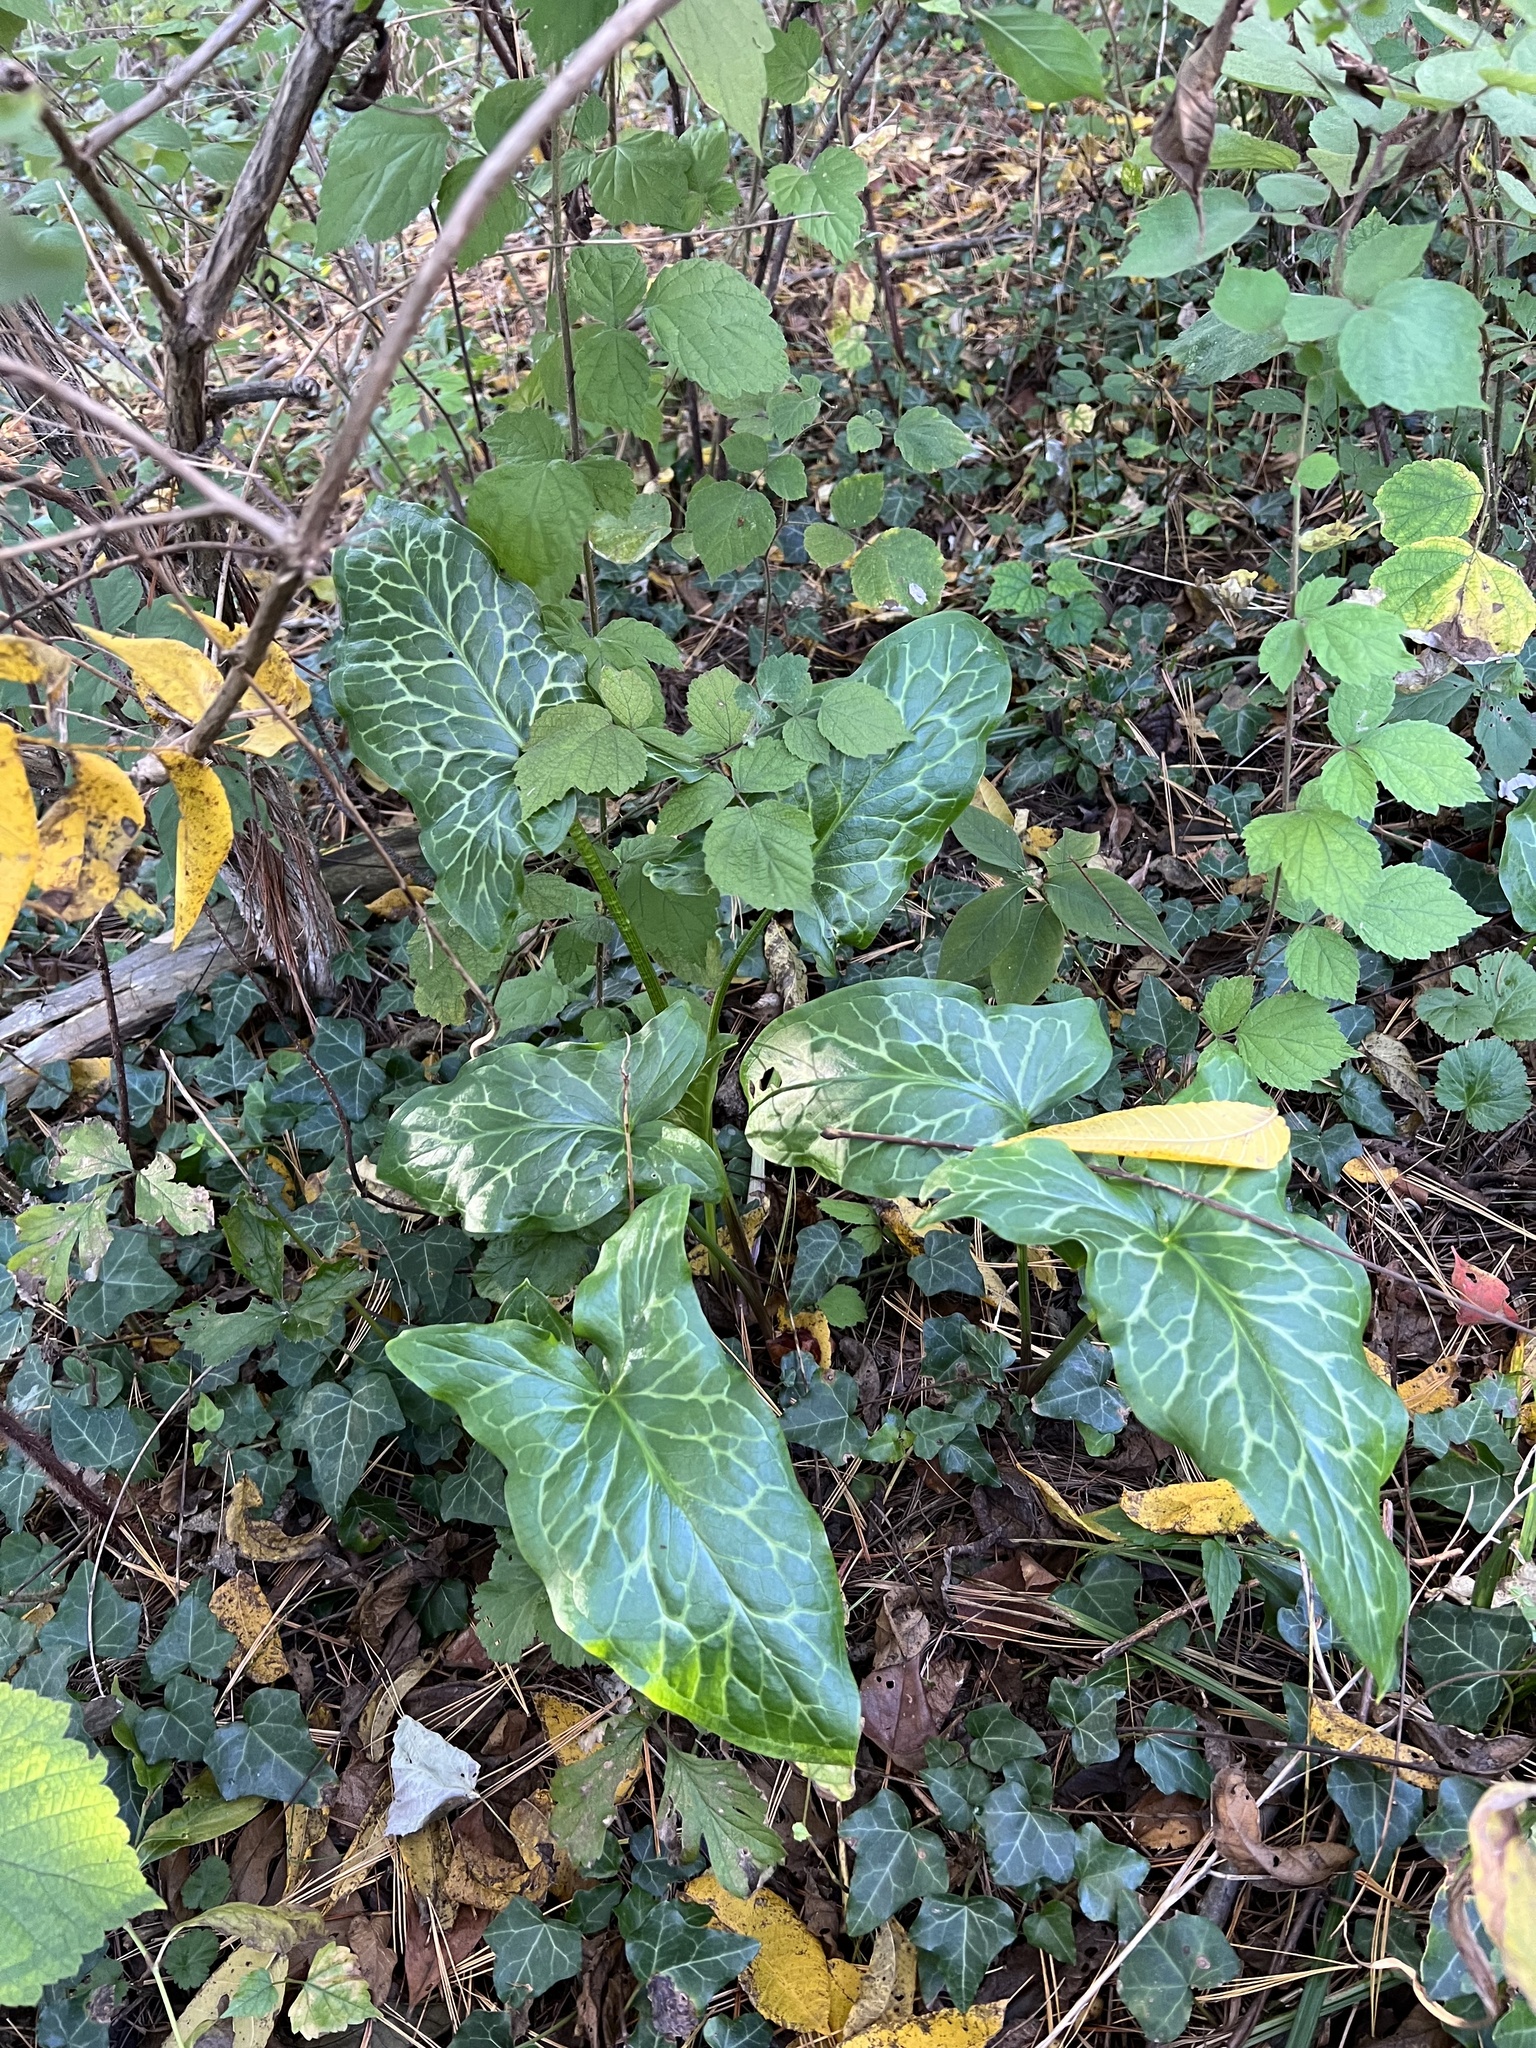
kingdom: Plantae
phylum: Tracheophyta
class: Liliopsida
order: Alismatales
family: Araceae
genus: Arum
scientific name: Arum italicum
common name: Italian lords-and-ladies
